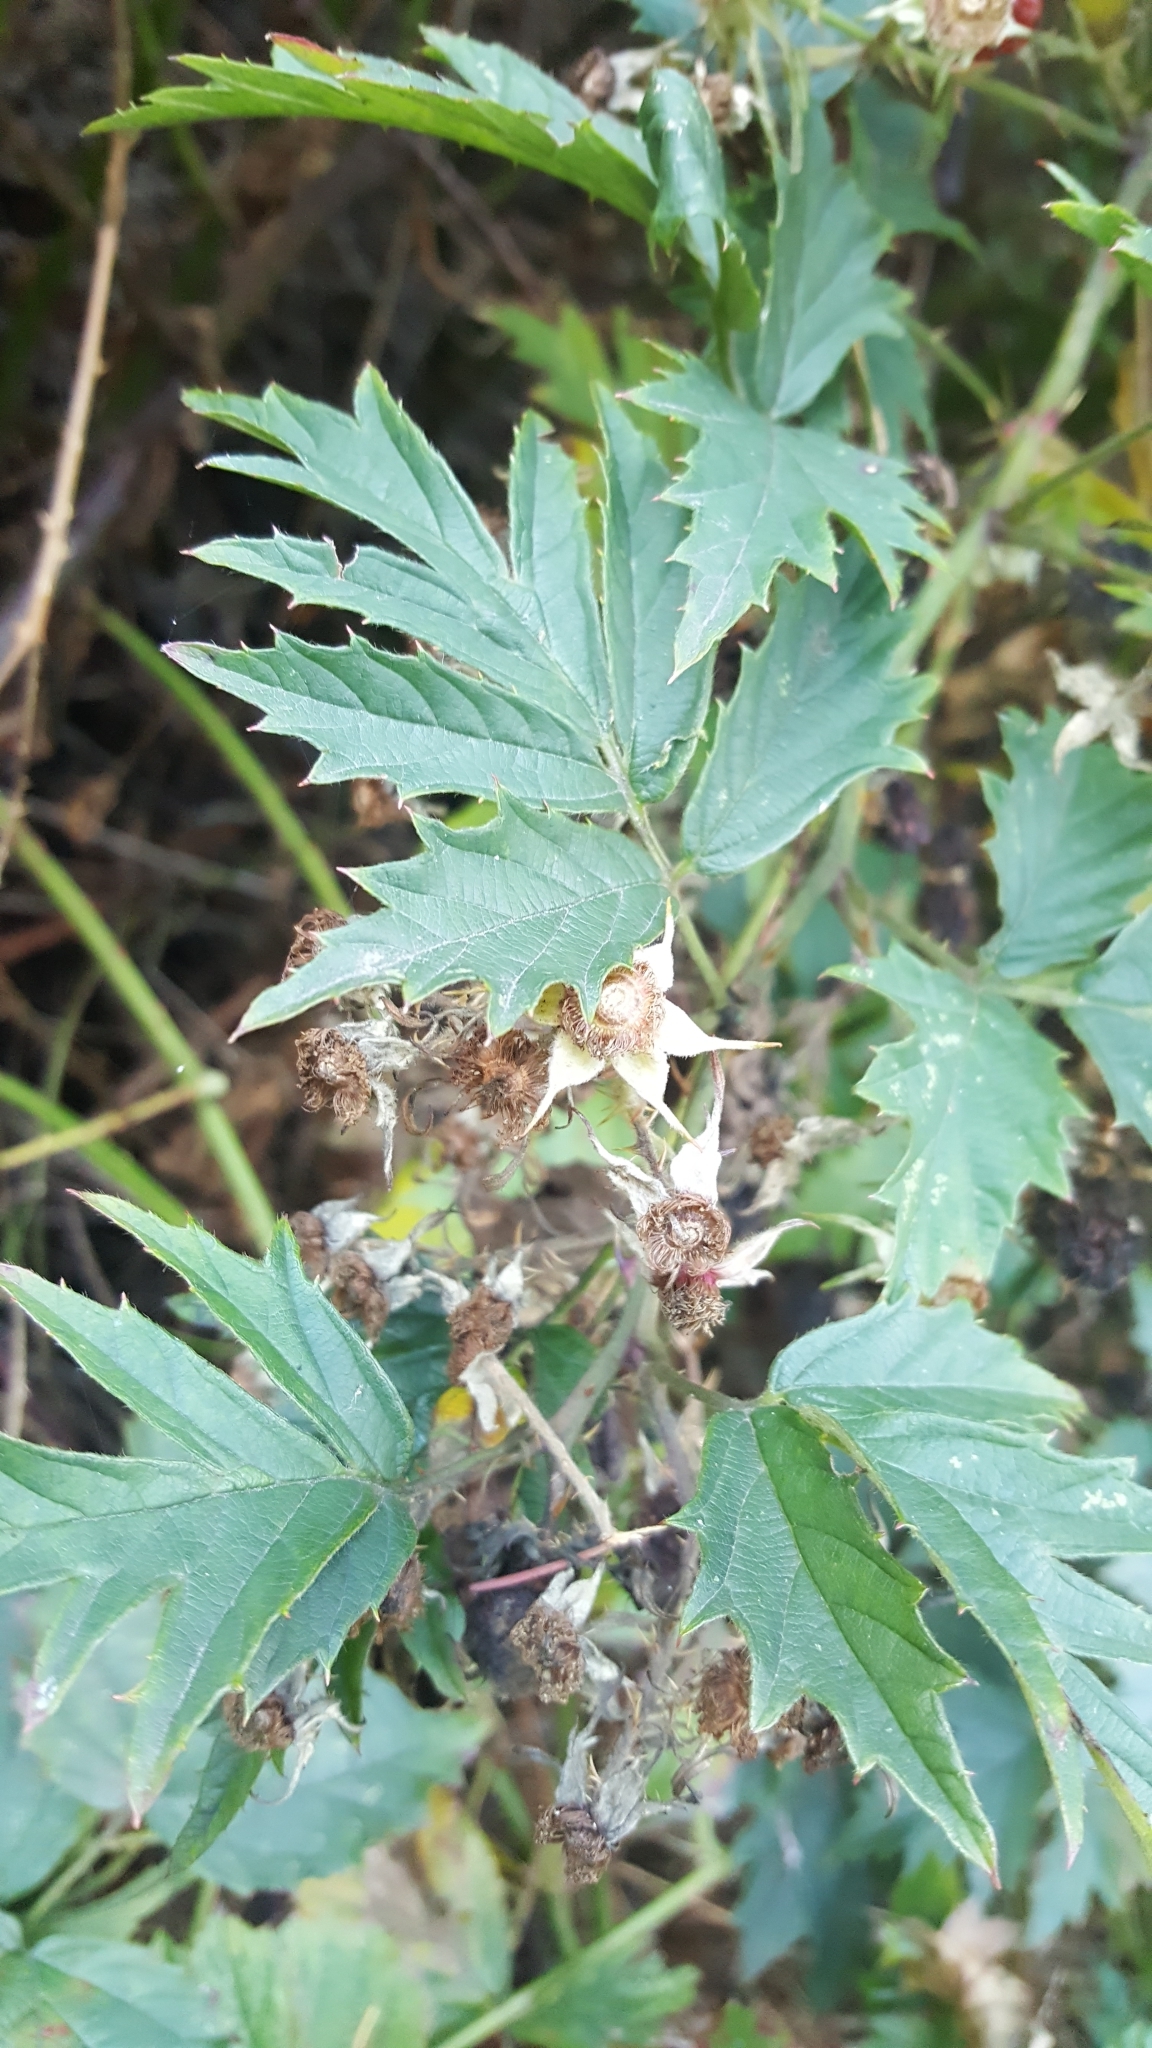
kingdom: Plantae
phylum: Tracheophyta
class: Magnoliopsida
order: Rosales
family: Rosaceae
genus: Rubus
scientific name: Rubus laciniatus
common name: Evergreen blackberry
